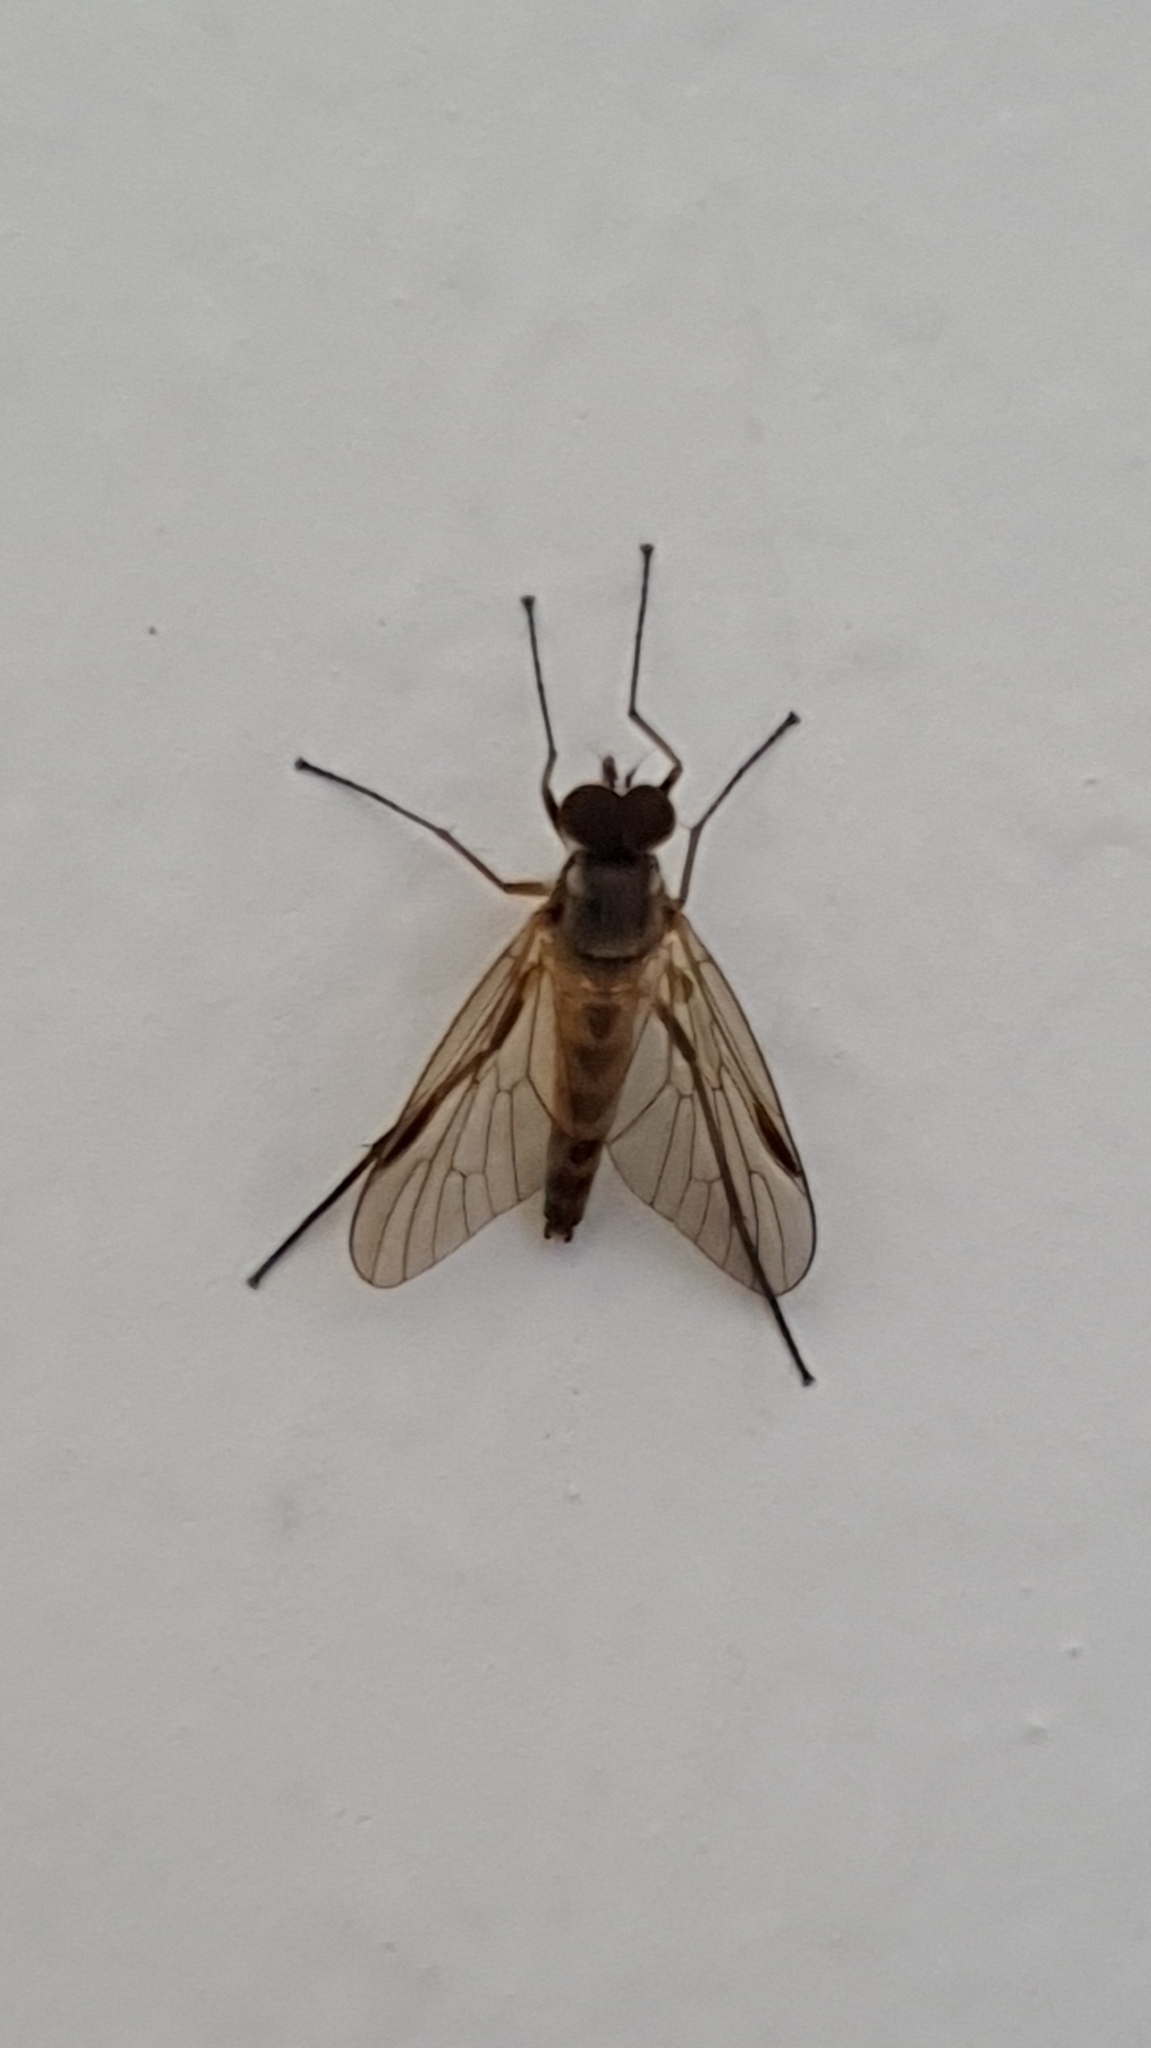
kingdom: Animalia
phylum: Arthropoda
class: Insecta
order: Diptera
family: Rhagionidae
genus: Rhagio
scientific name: Rhagio lineola
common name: Small fleck-winged snipefly
